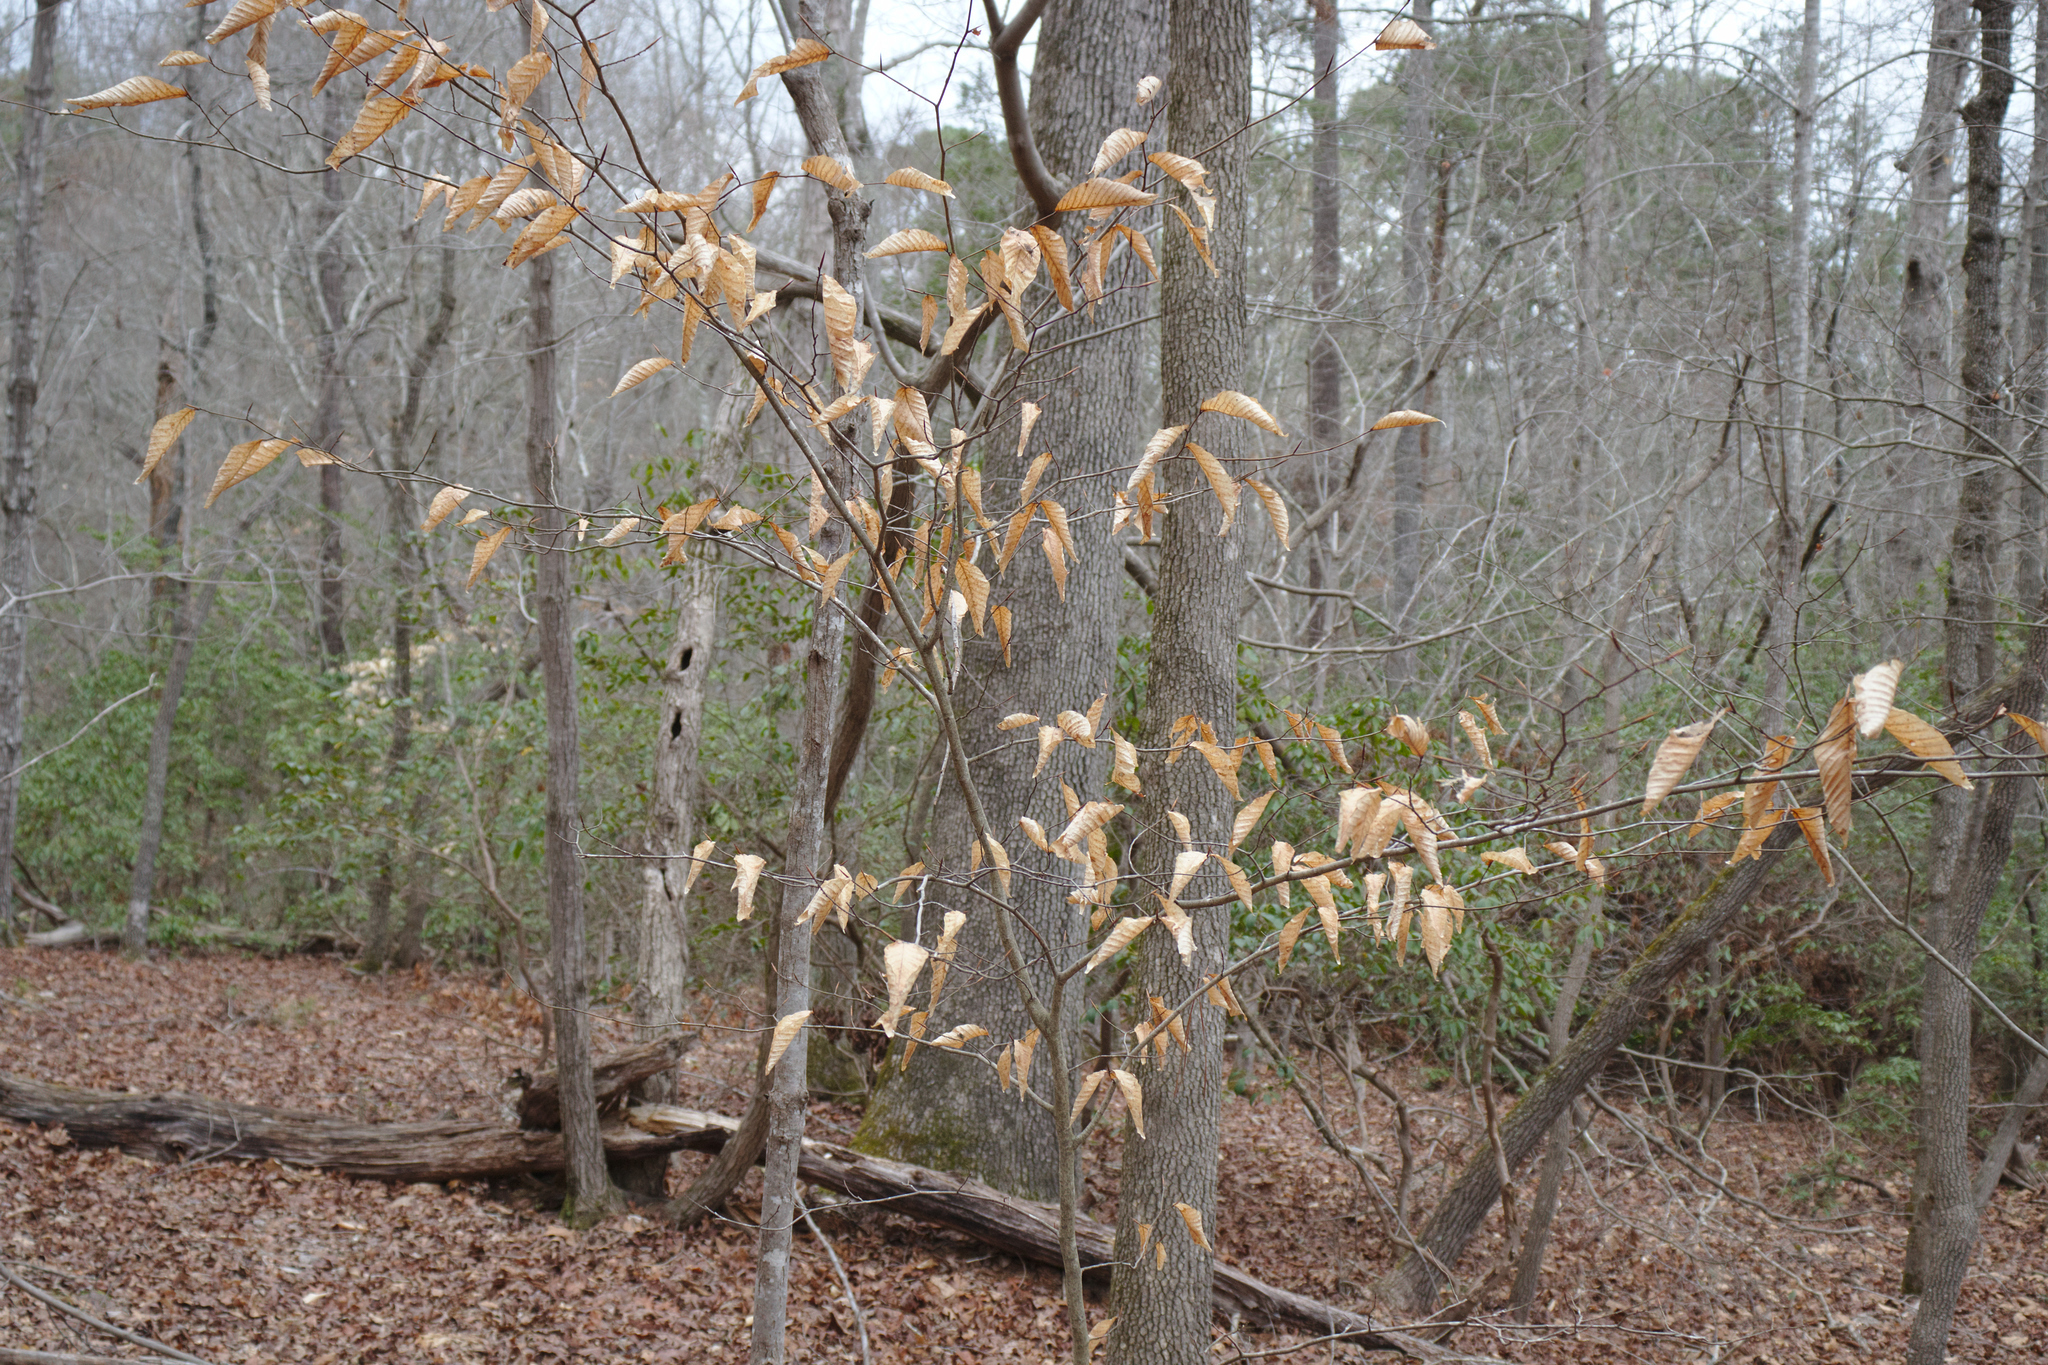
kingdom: Plantae
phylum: Tracheophyta
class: Magnoliopsida
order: Fagales
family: Fagaceae
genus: Fagus
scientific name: Fagus grandifolia
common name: American beech
